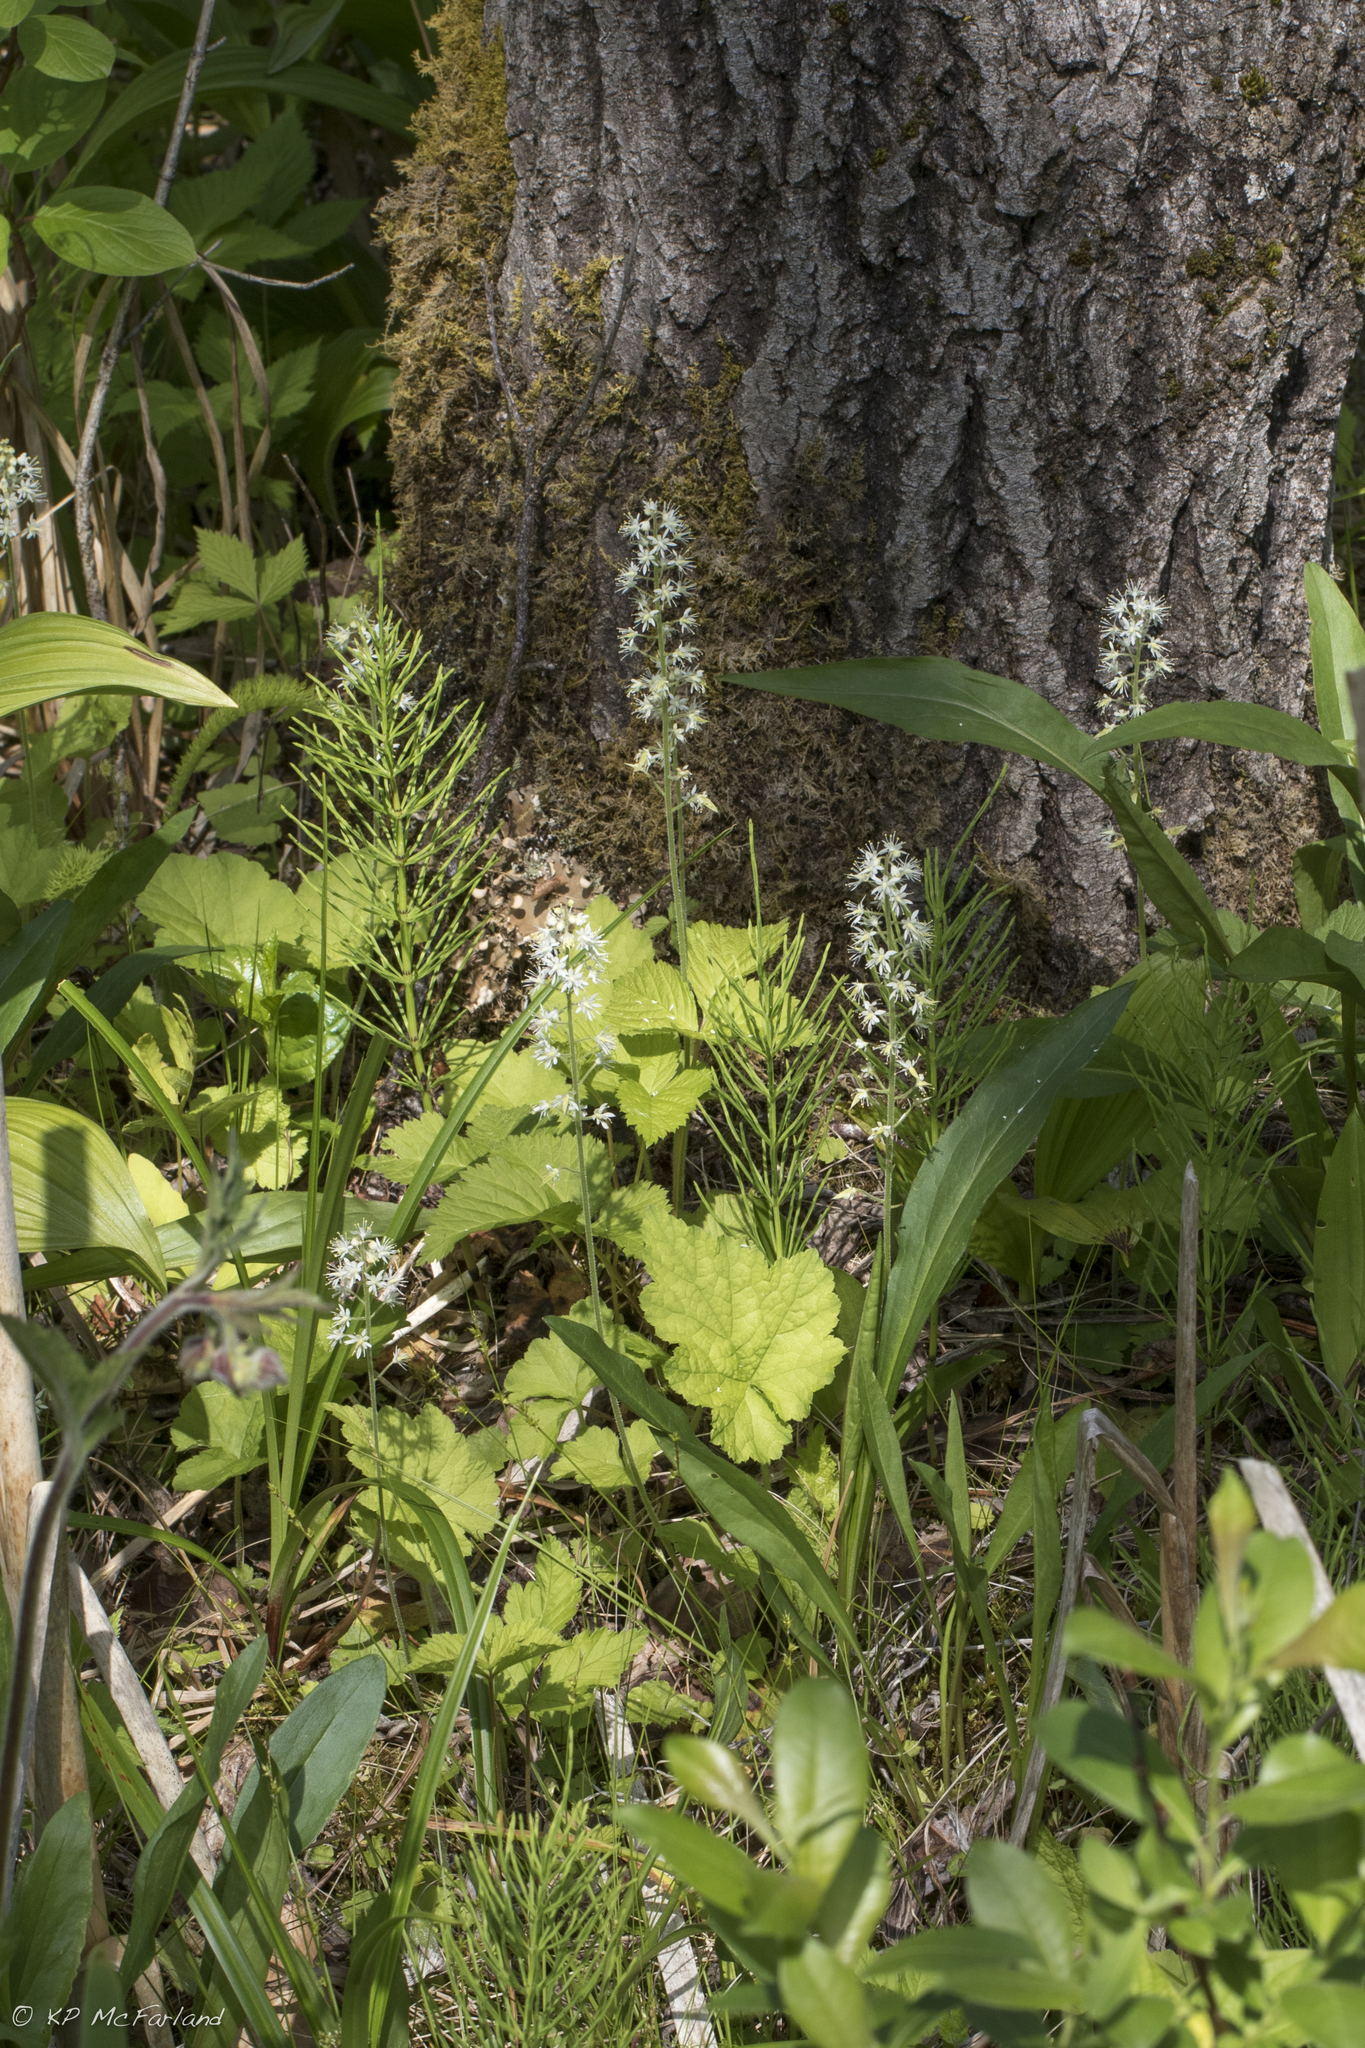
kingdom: Plantae
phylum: Tracheophyta
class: Magnoliopsida
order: Saxifragales
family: Saxifragaceae
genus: Tiarella
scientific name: Tiarella stolonifera
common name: Stoloniferous foamflower
